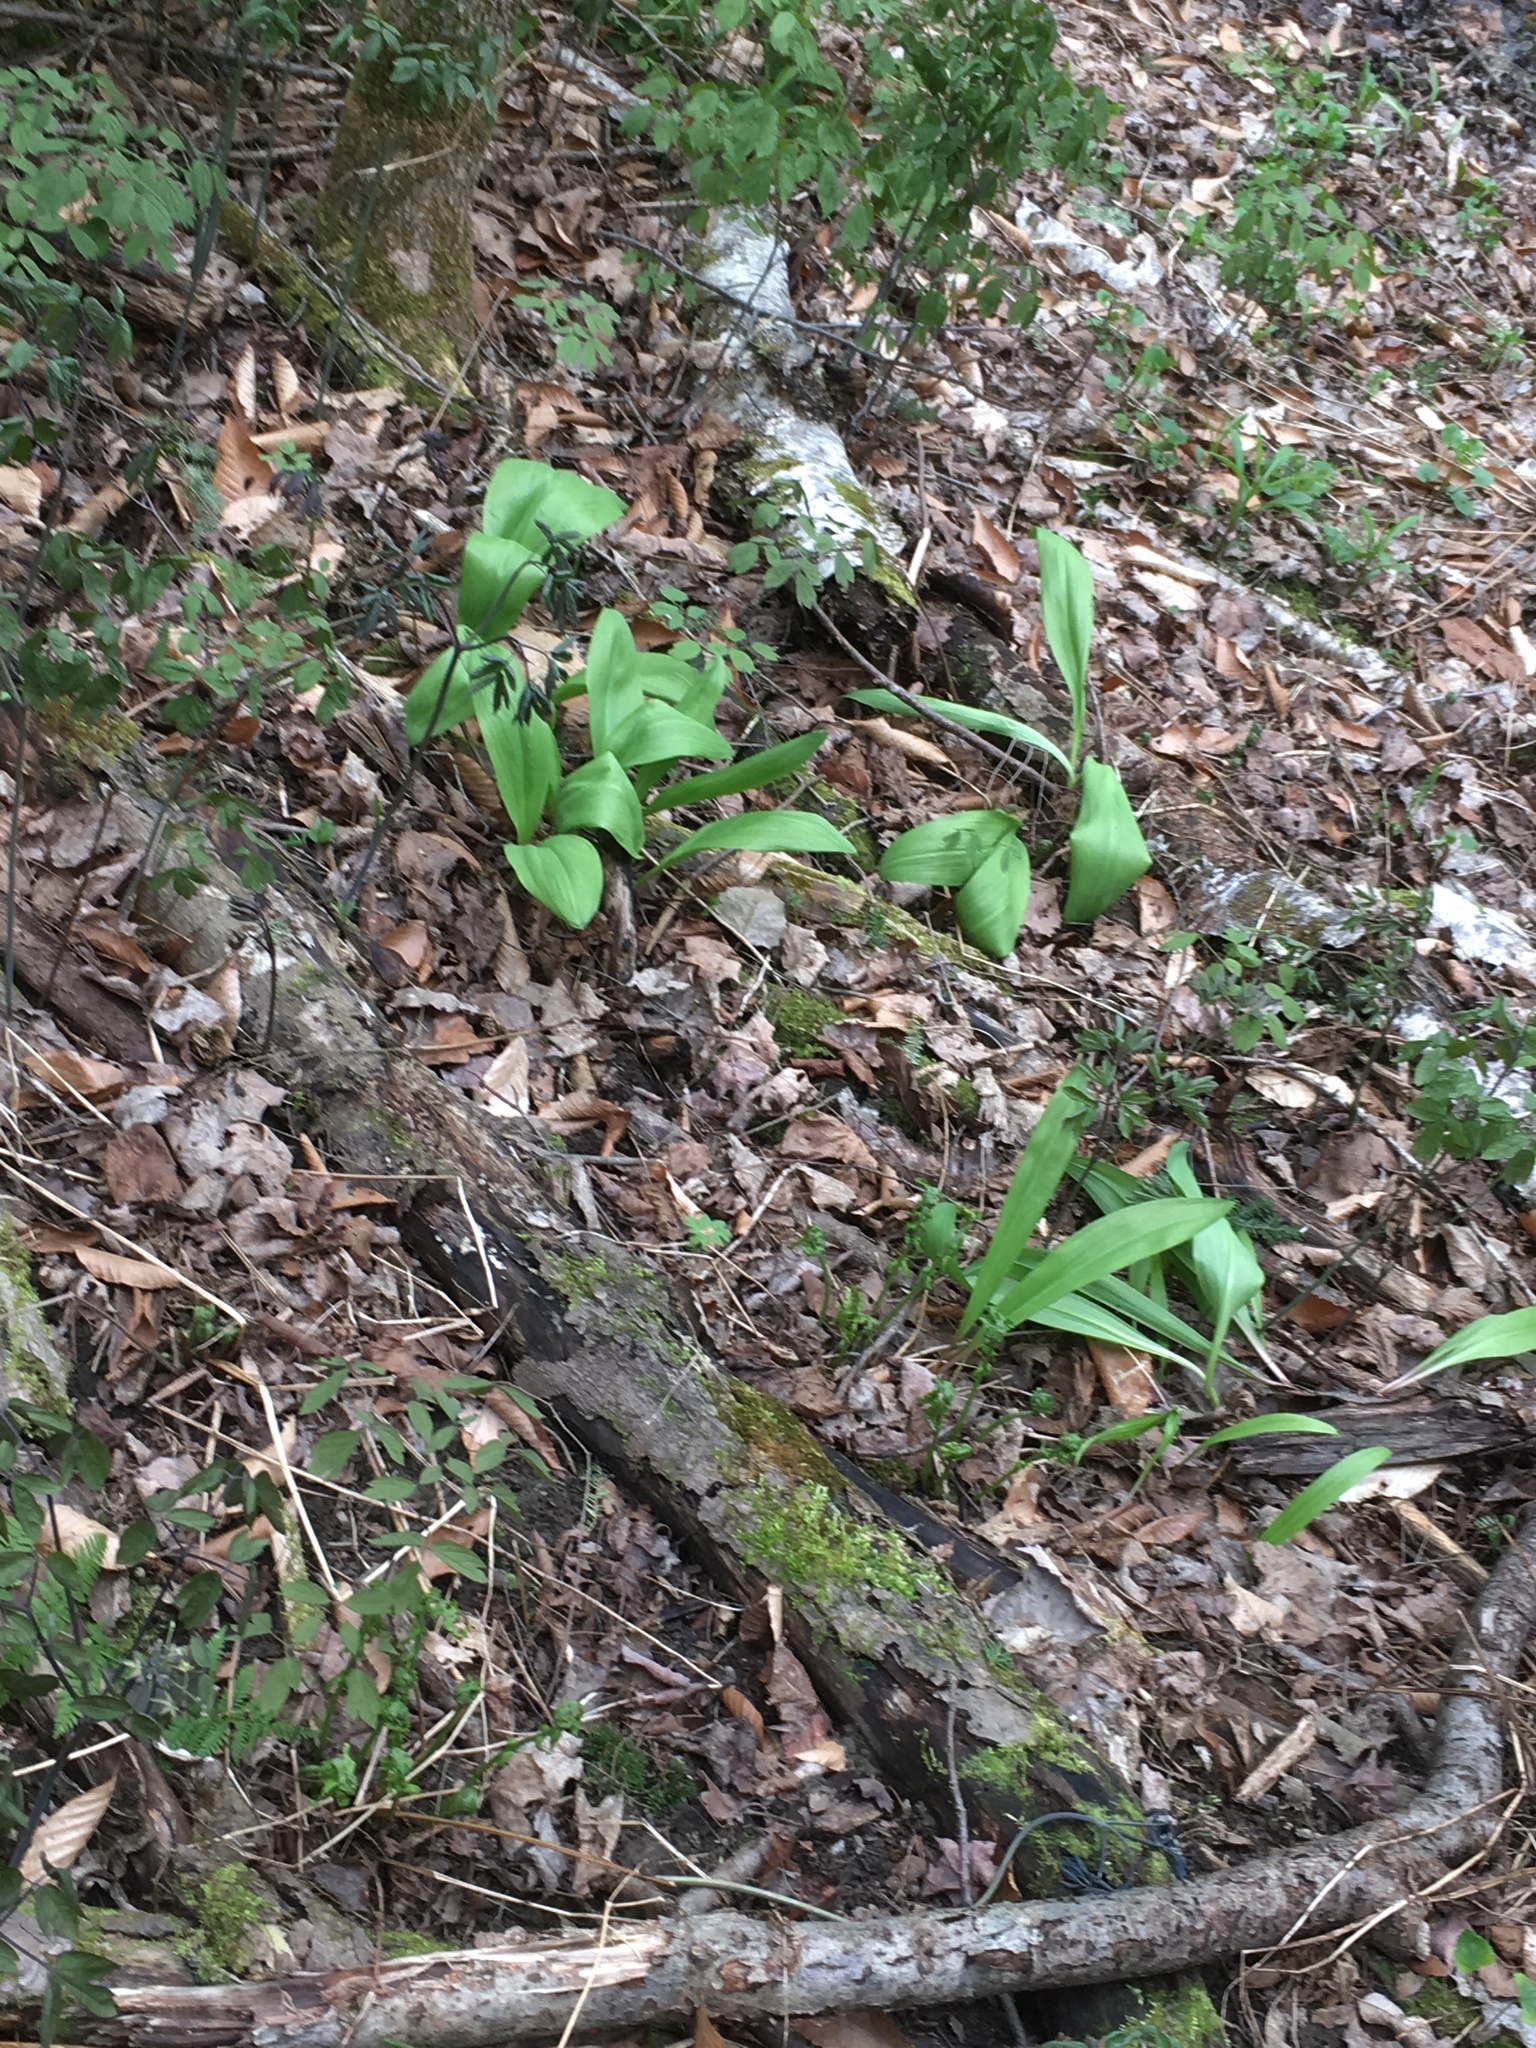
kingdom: Plantae
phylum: Tracheophyta
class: Liliopsida
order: Asparagales
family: Amaryllidaceae
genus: Allium
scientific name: Allium tricoccum
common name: Ramp
